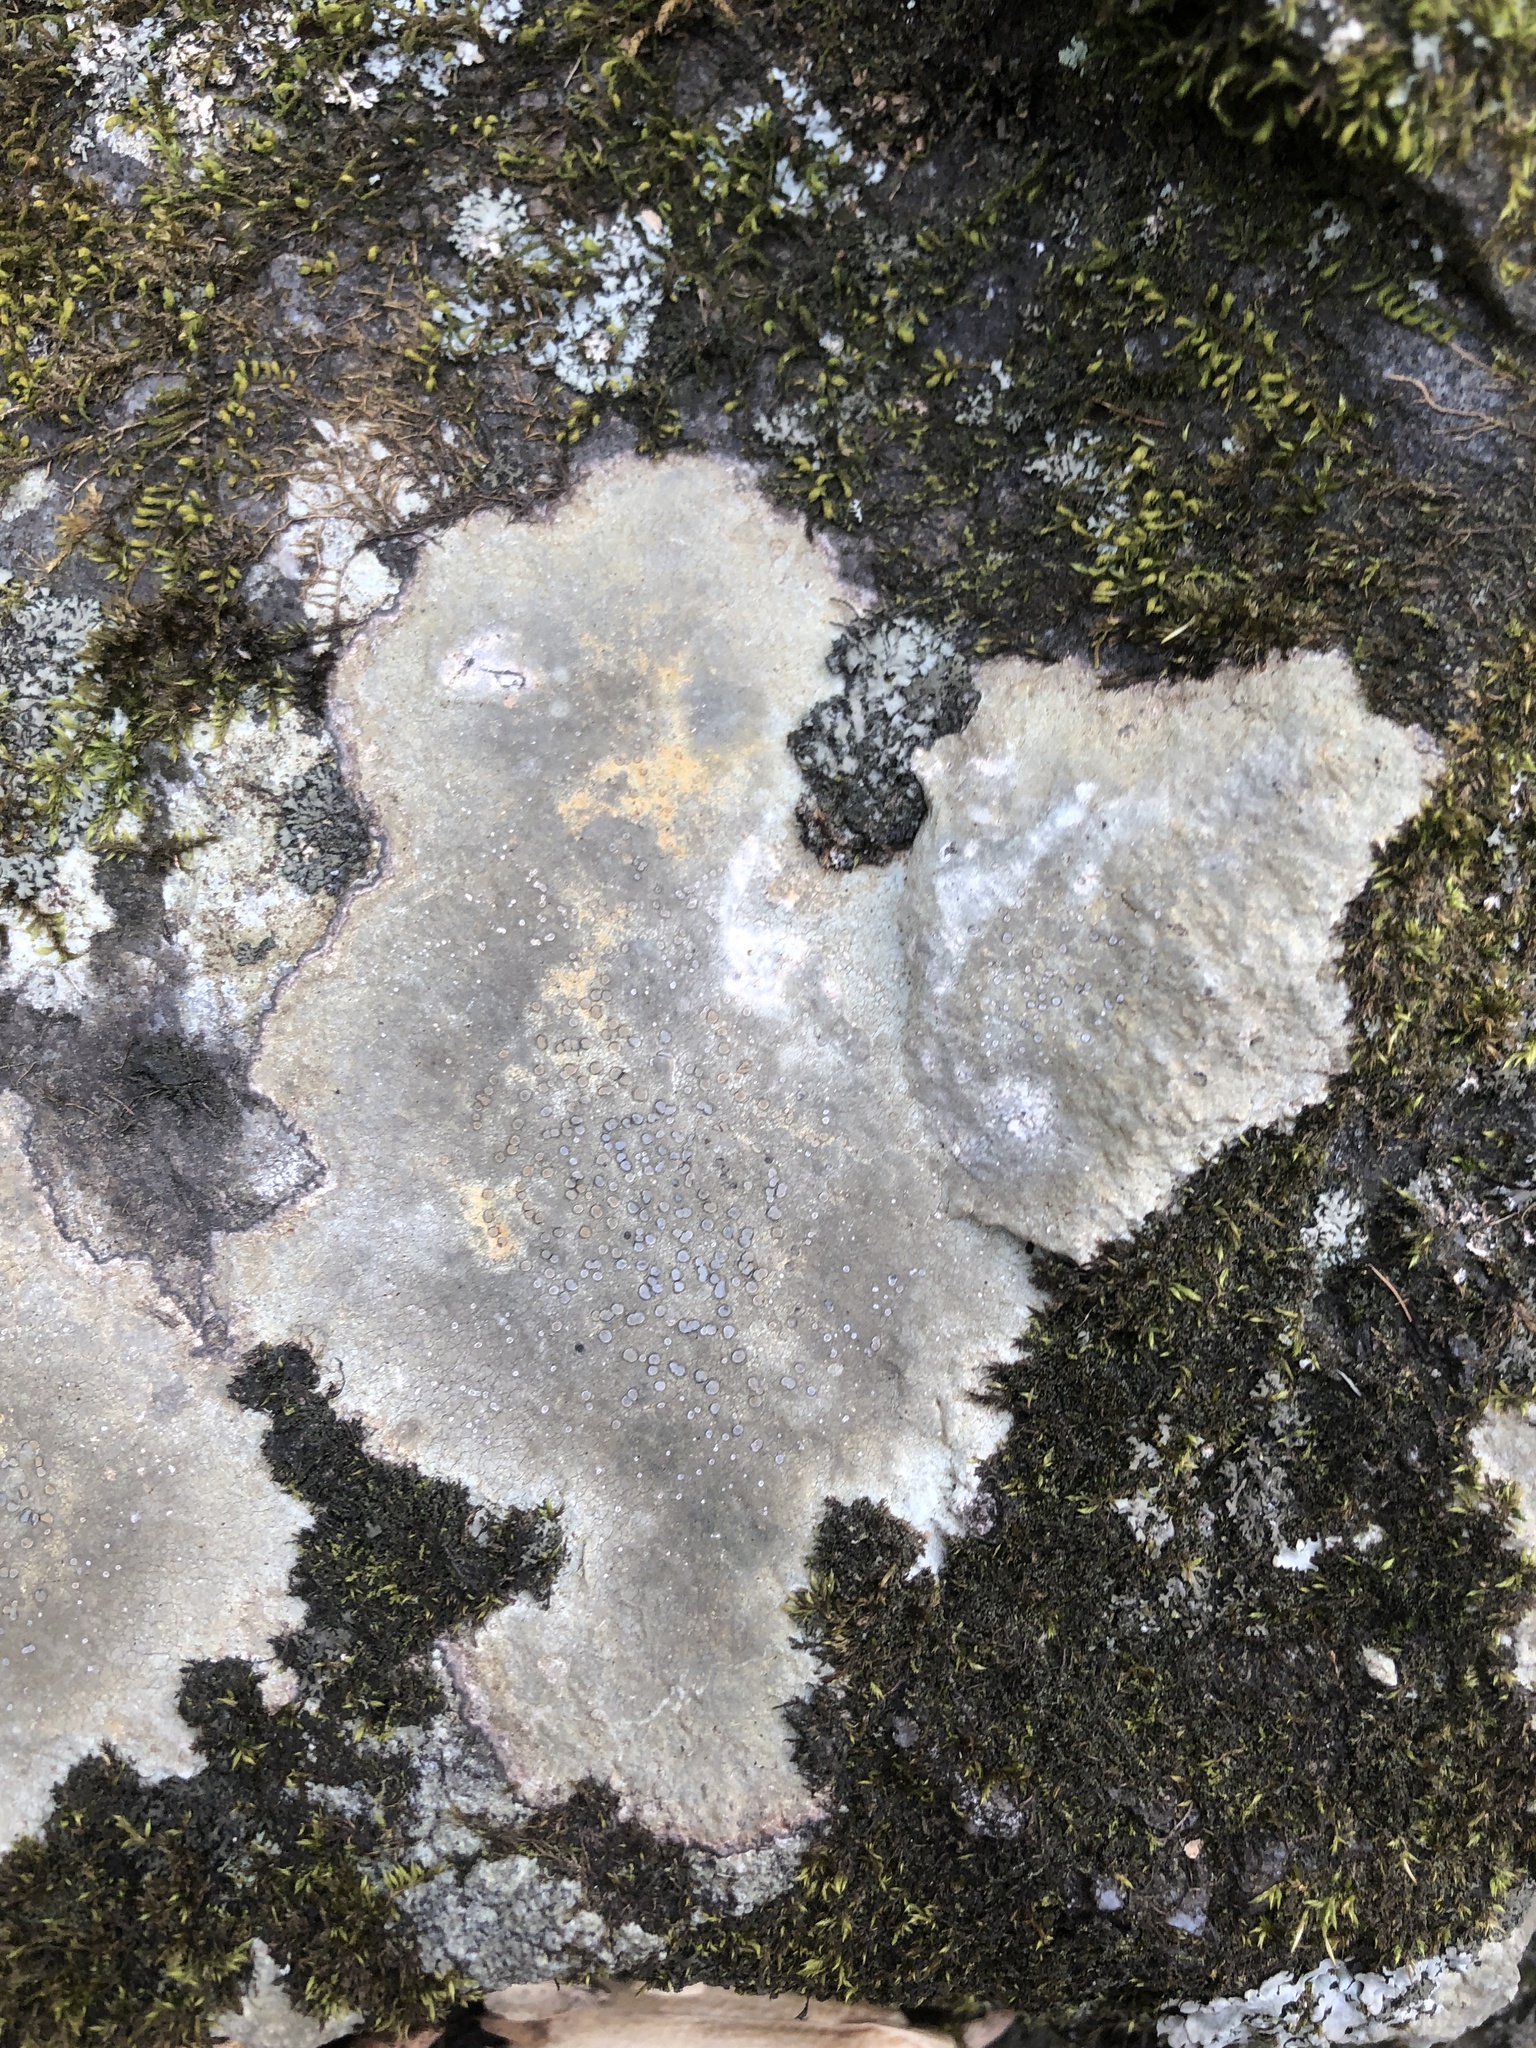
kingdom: Fungi
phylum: Ascomycota
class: Lecanoromycetes
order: Lecideales
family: Lecideaceae
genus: Porpidia
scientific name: Porpidia albocaerulescens
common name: Smokey-eyed boulder lichen
